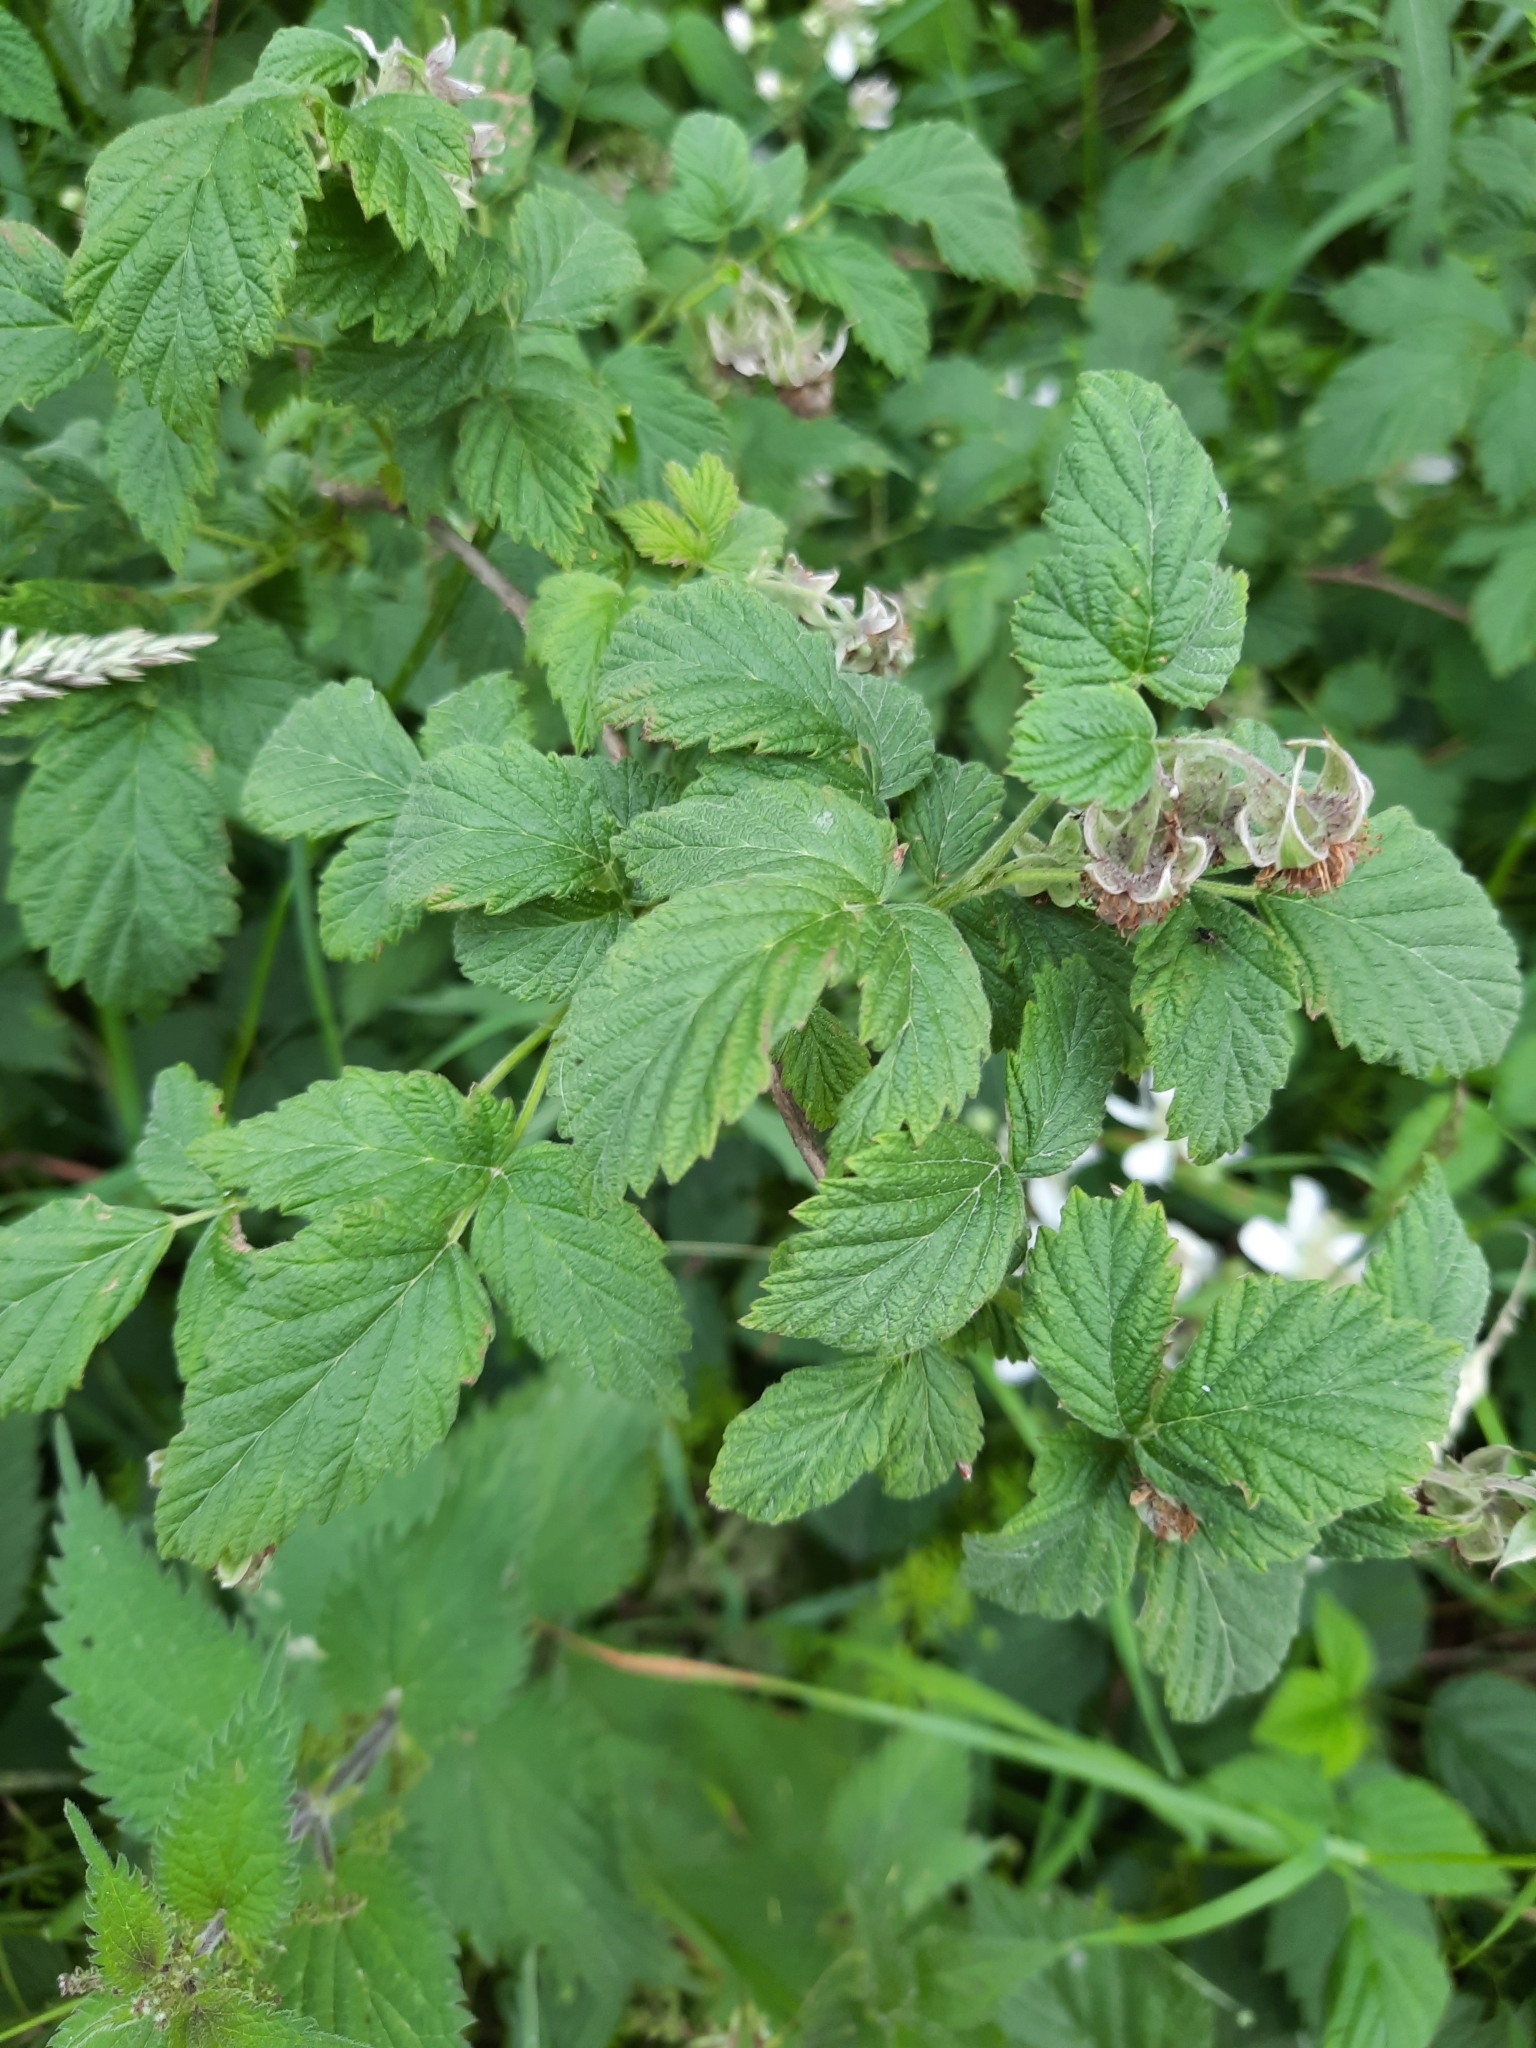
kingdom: Plantae
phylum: Tracheophyta
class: Magnoliopsida
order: Rosales
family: Rosaceae
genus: Rubus
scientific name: Rubus idaeus
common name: Raspberry
